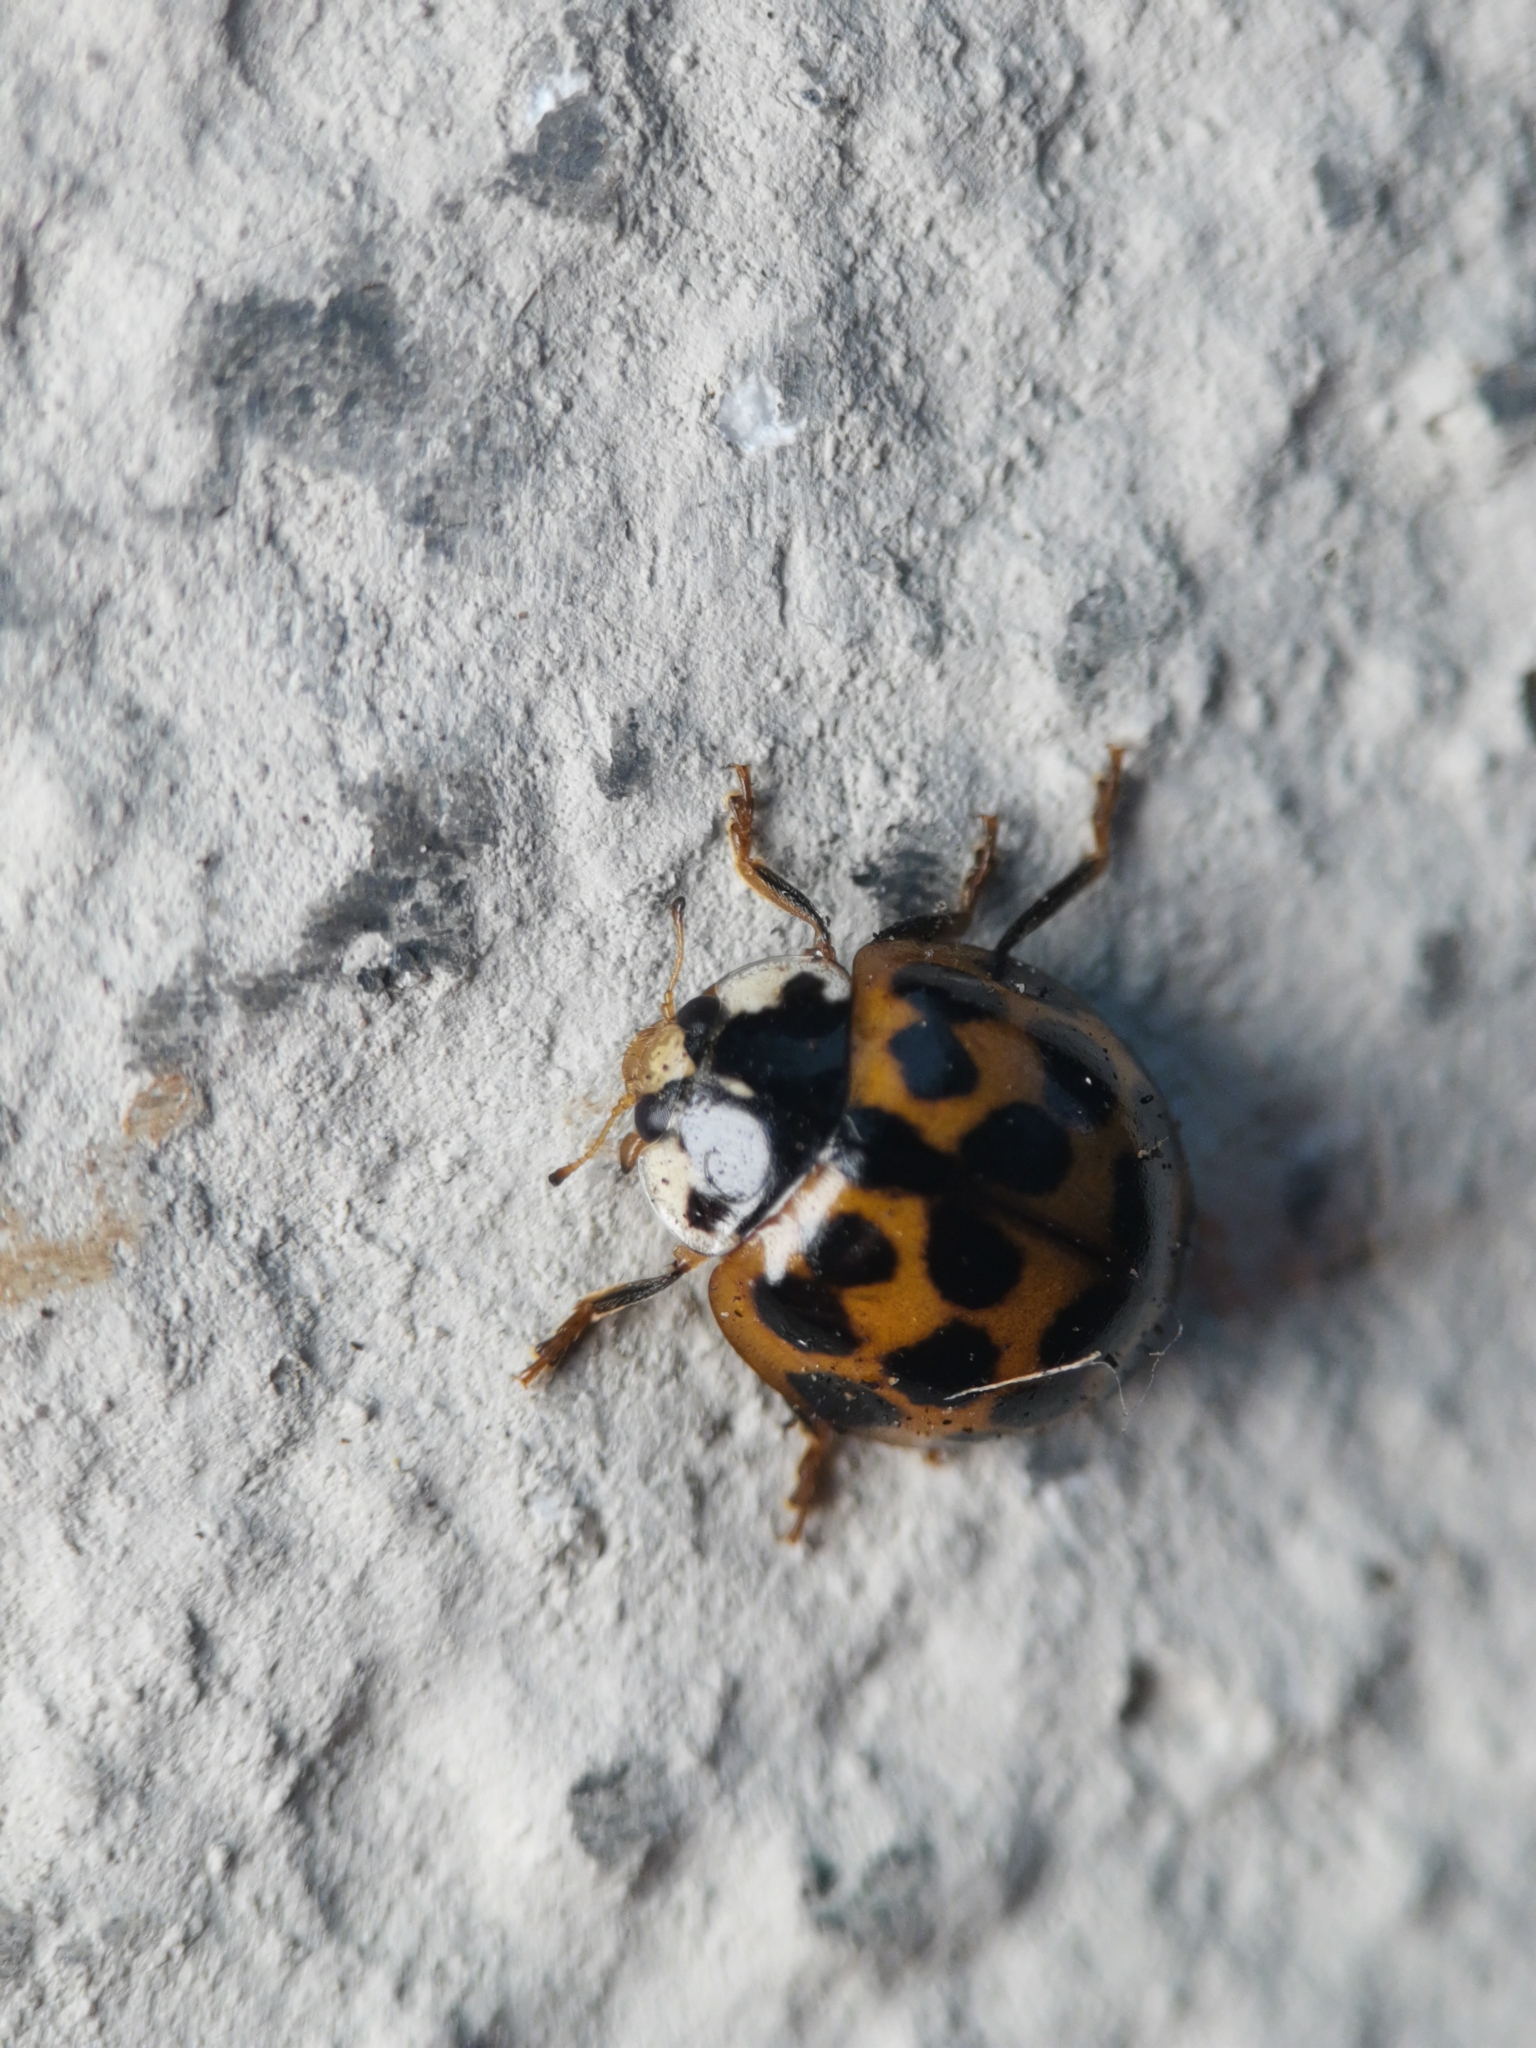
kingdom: Animalia
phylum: Arthropoda
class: Insecta
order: Coleoptera
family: Coccinellidae
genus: Harmonia
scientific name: Harmonia axyridis
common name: Harlequin ladybird
